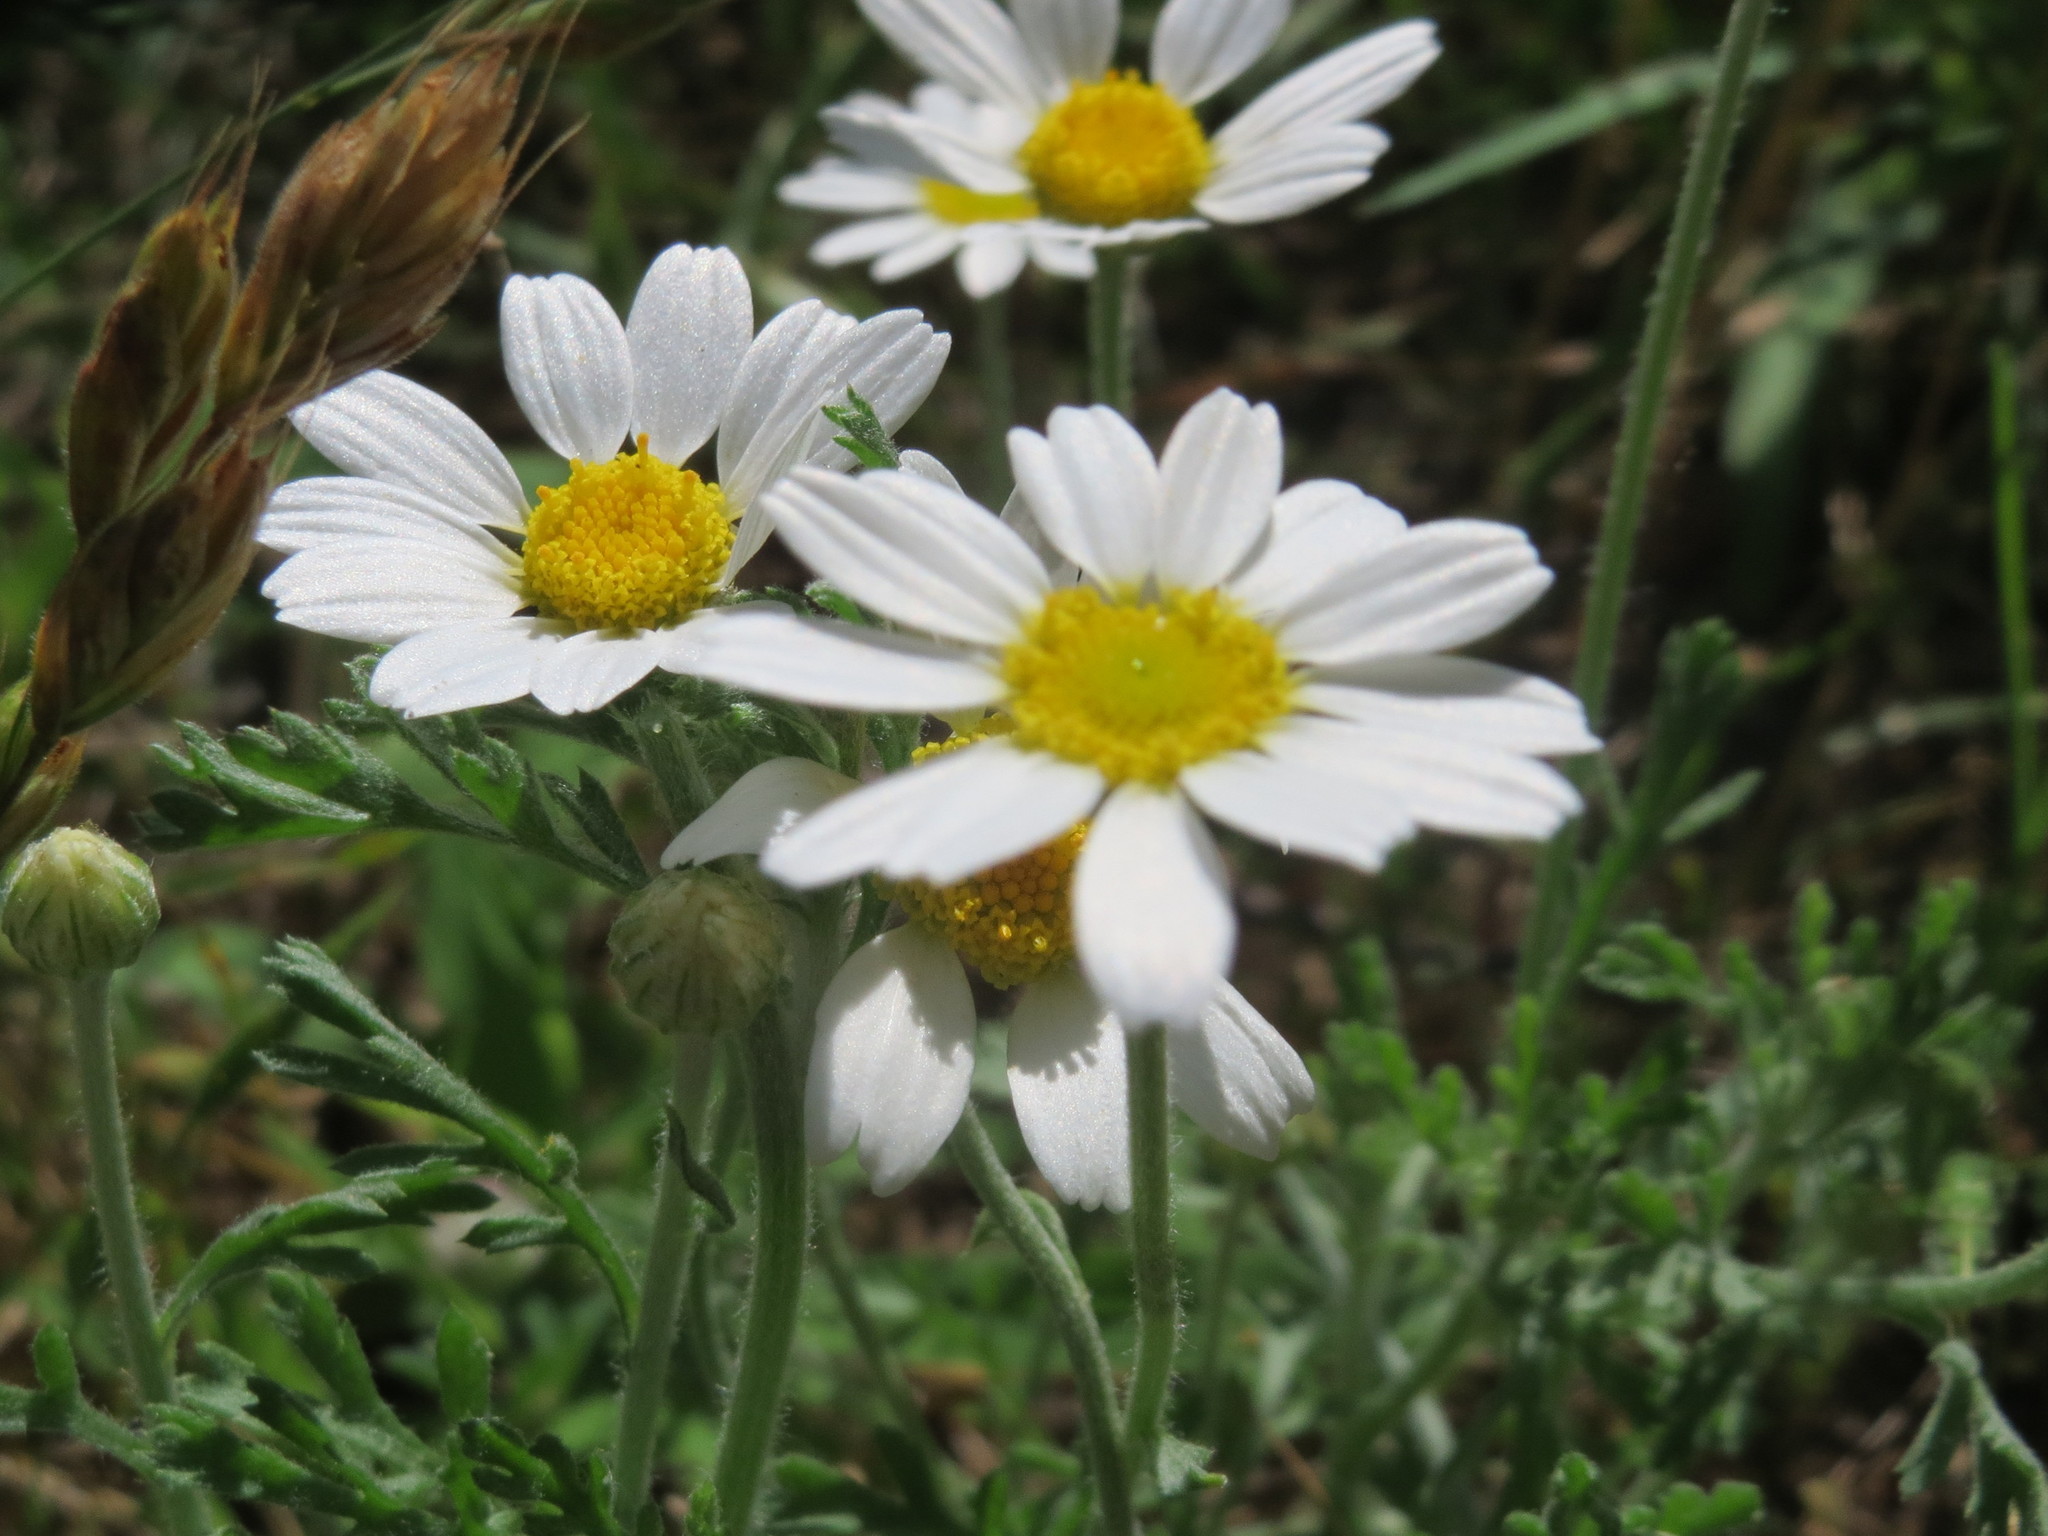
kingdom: Plantae
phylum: Tracheophyta
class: Magnoliopsida
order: Asterales
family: Asteraceae
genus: Anthemis
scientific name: Anthemis arvensis
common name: Corn chamomile
